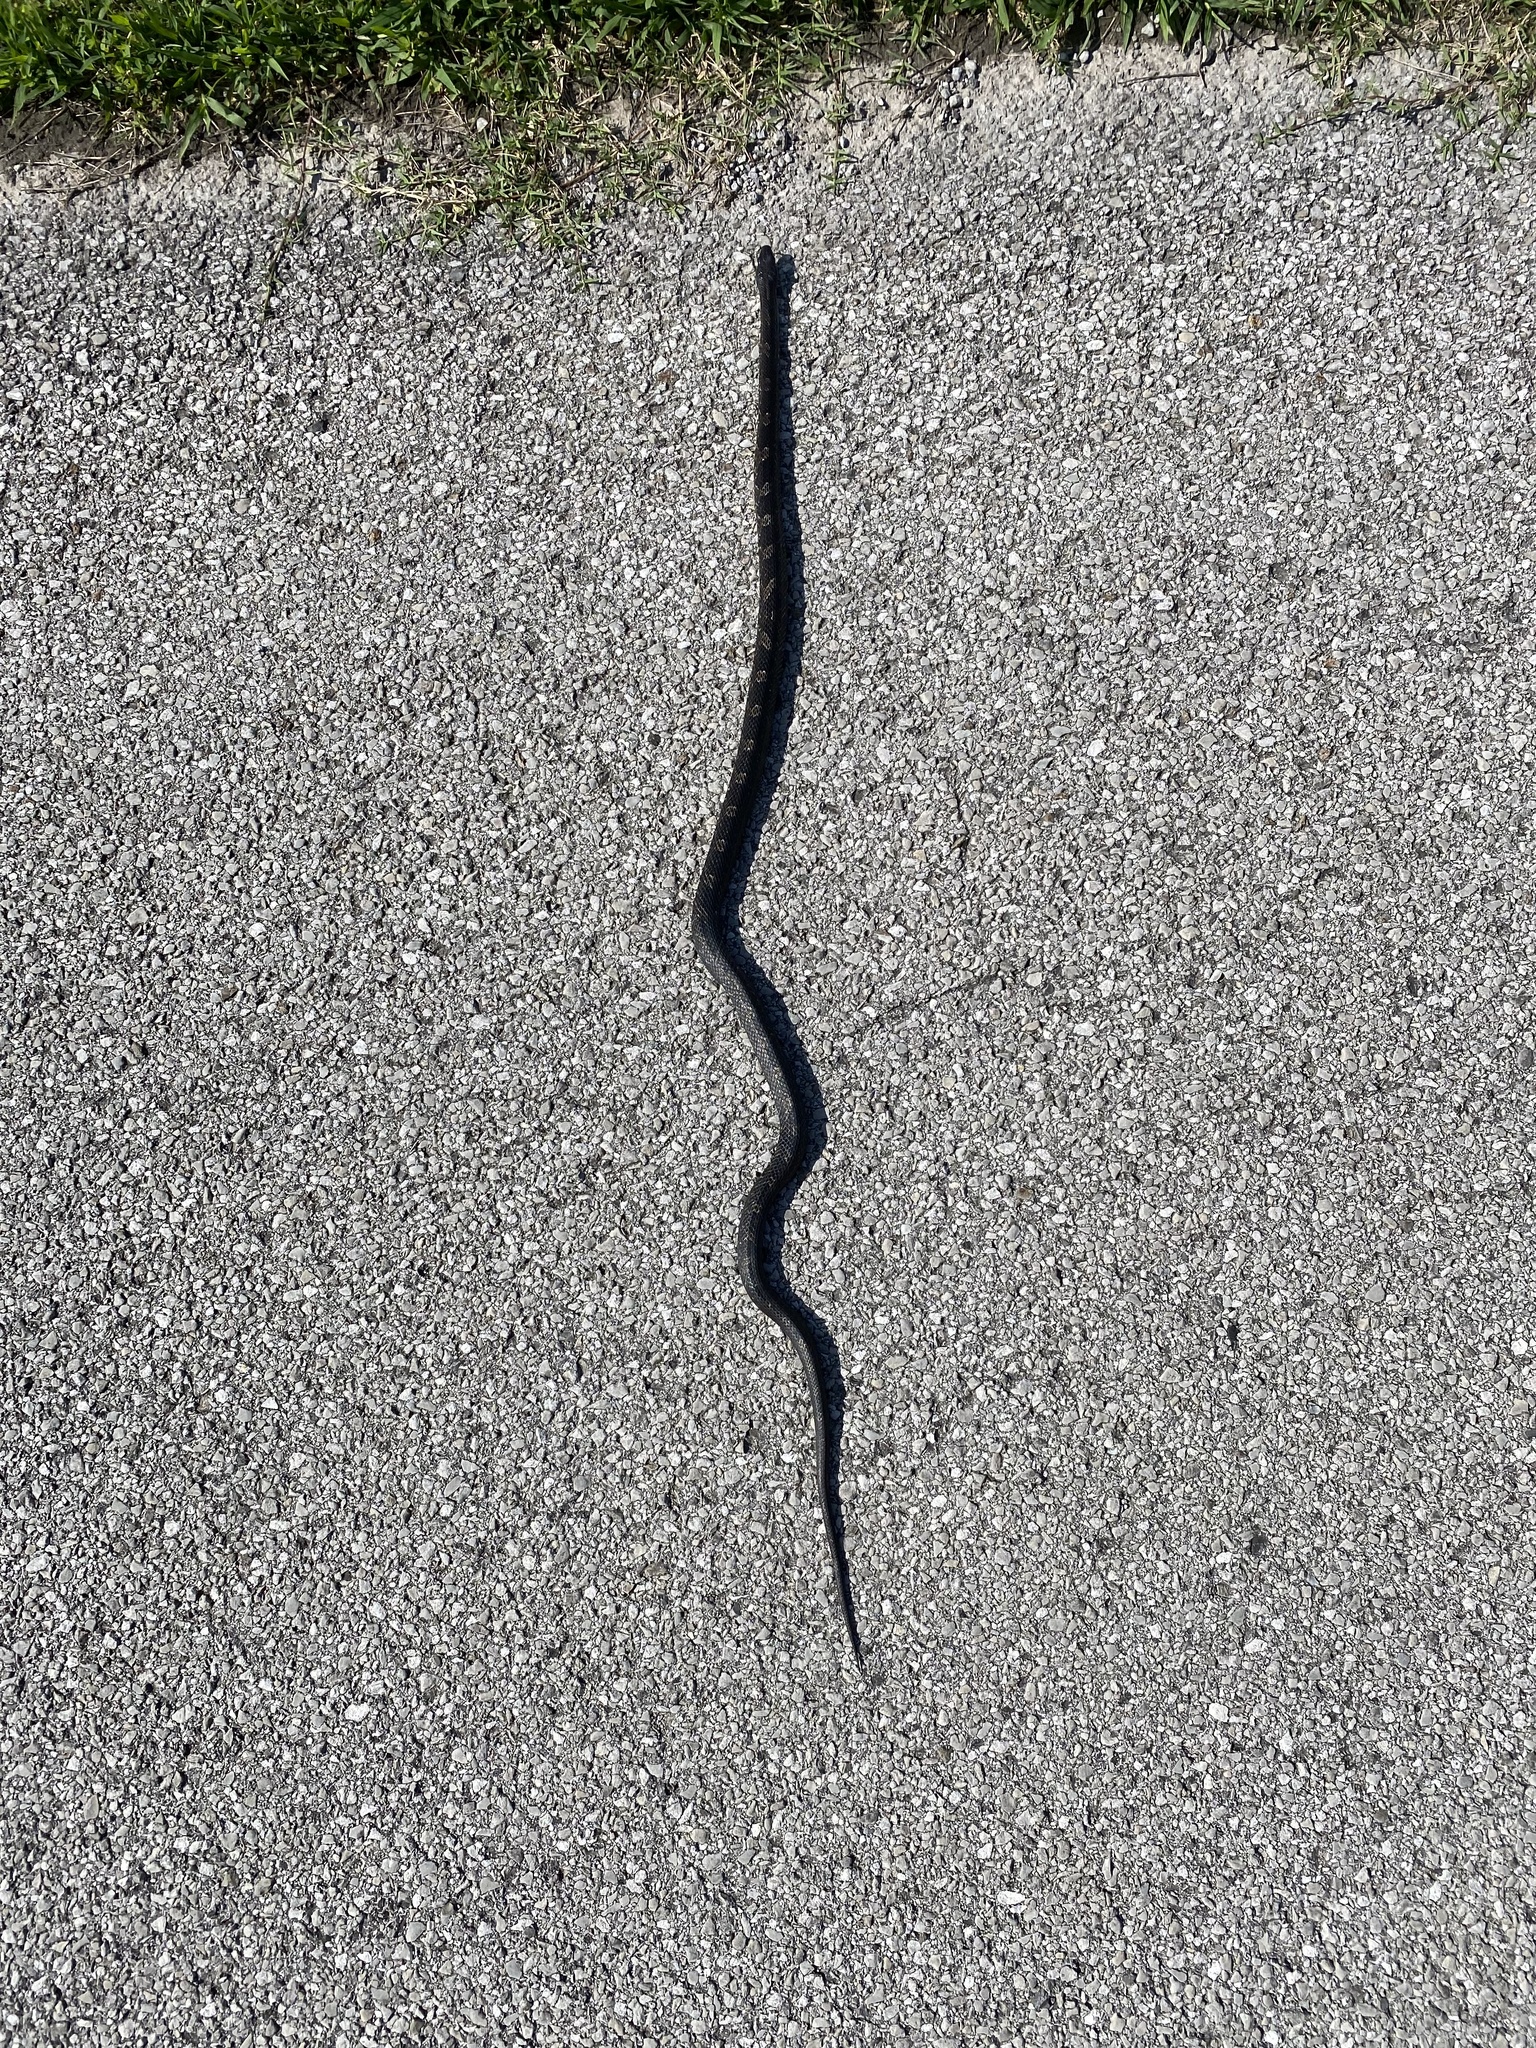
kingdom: Animalia
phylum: Chordata
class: Squamata
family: Colubridae
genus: Pantherophis
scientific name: Pantherophis spiloides
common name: Gray rat snake
